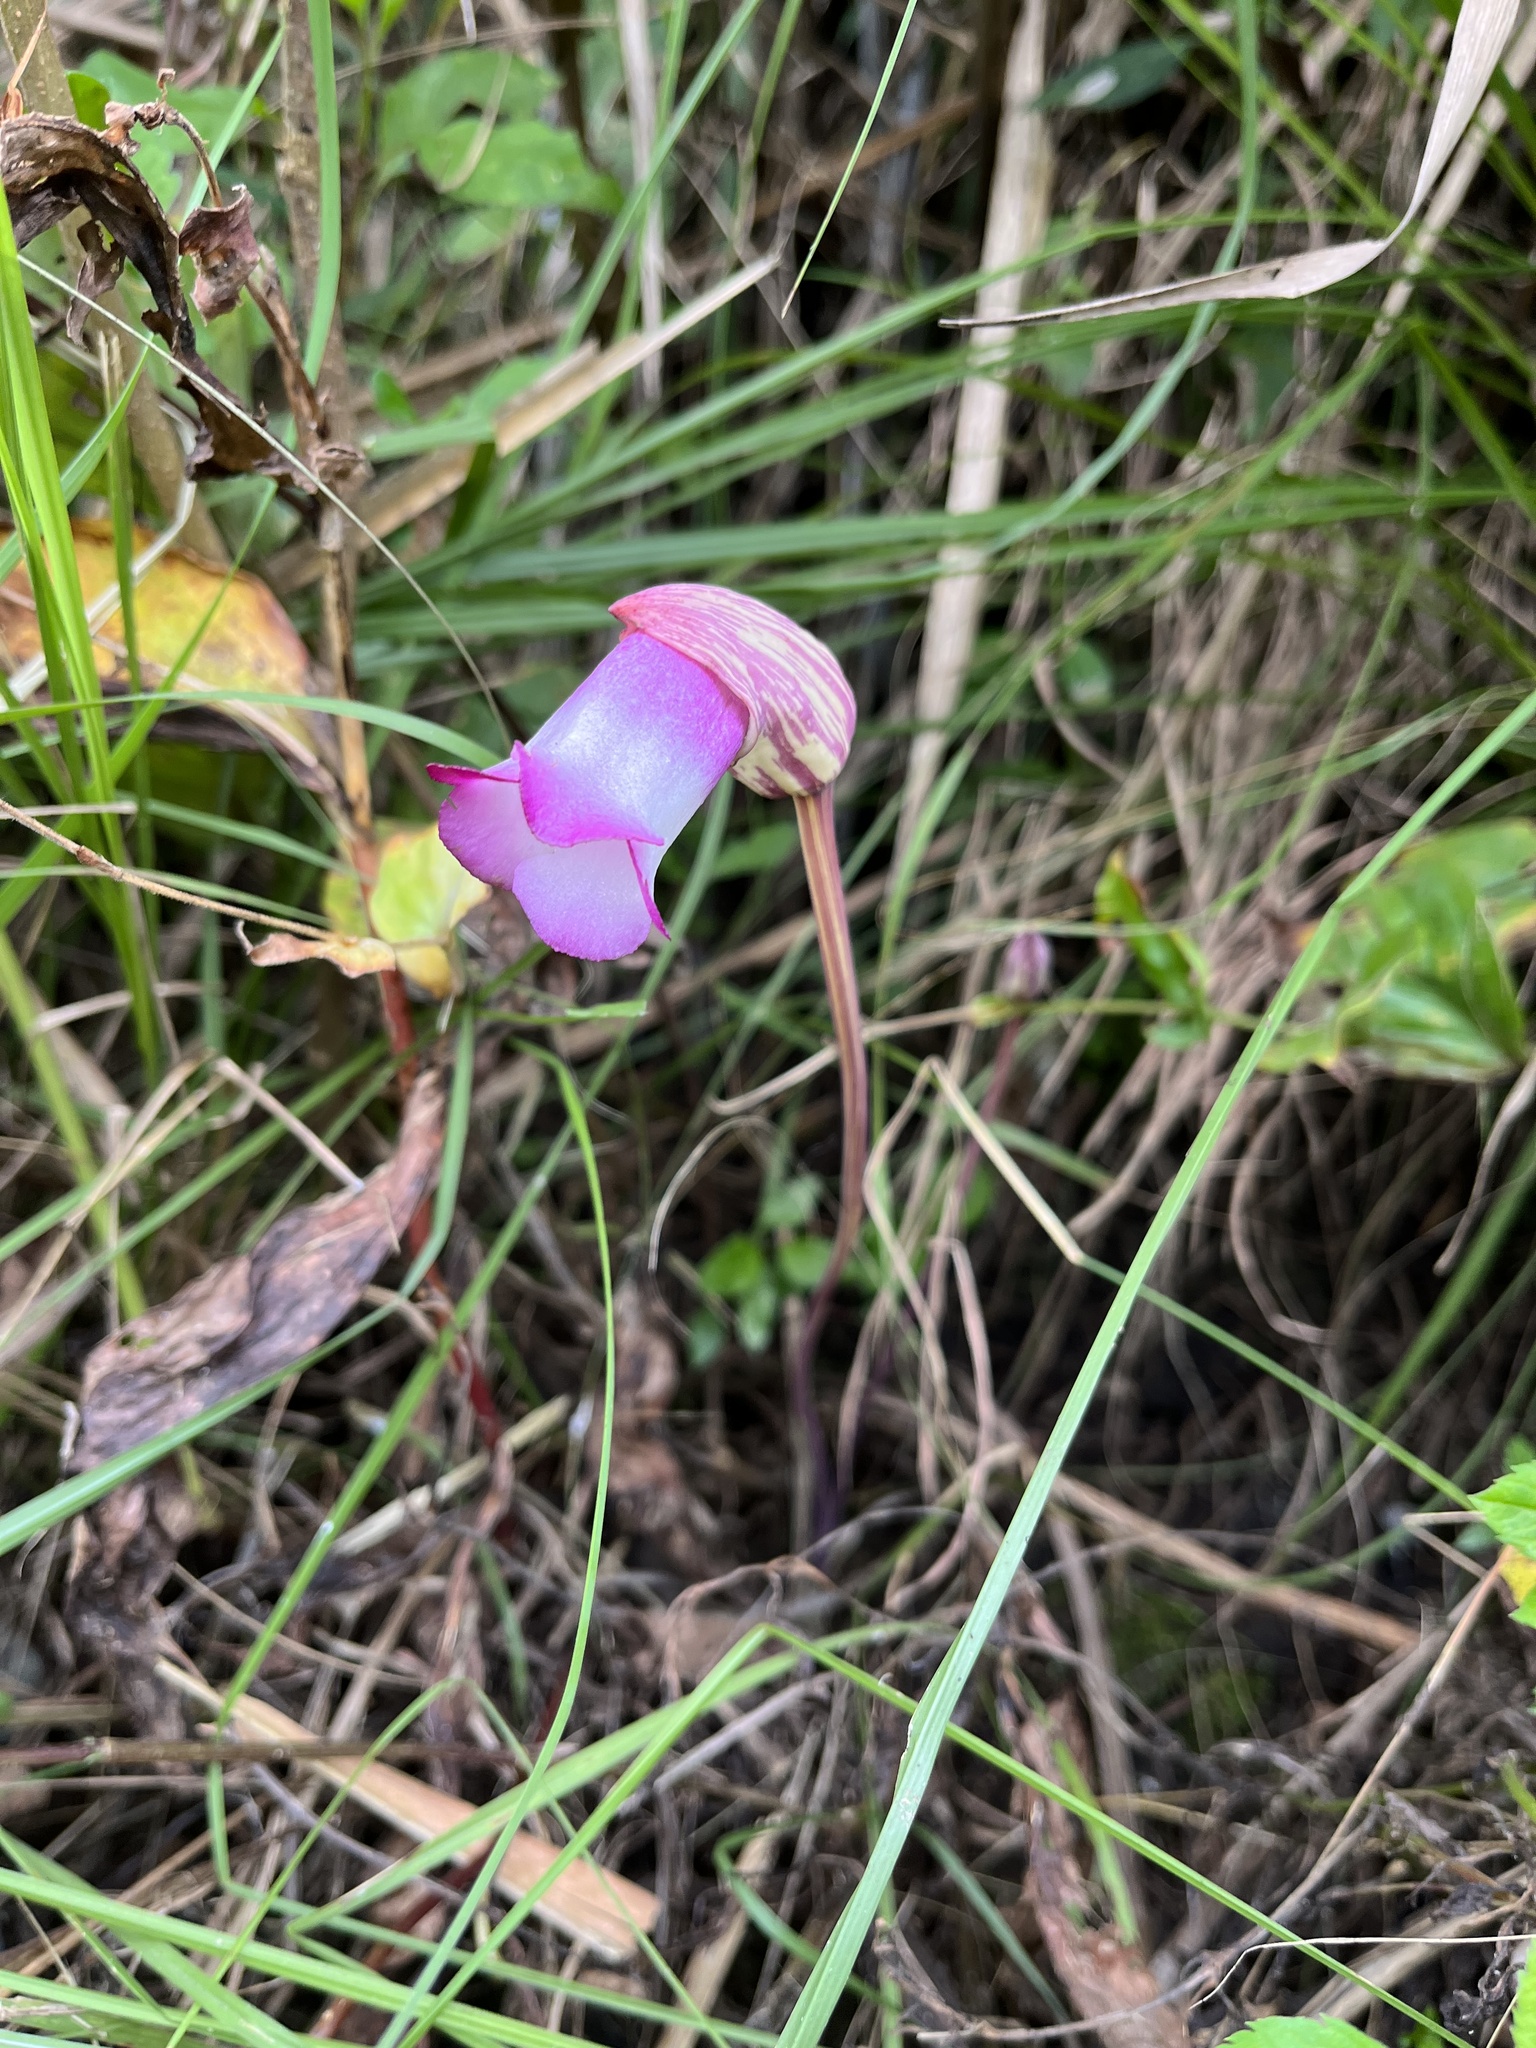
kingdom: Plantae
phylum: Tracheophyta
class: Magnoliopsida
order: Lamiales
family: Orobanchaceae
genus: Aeginetia
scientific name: Aeginetia indica
